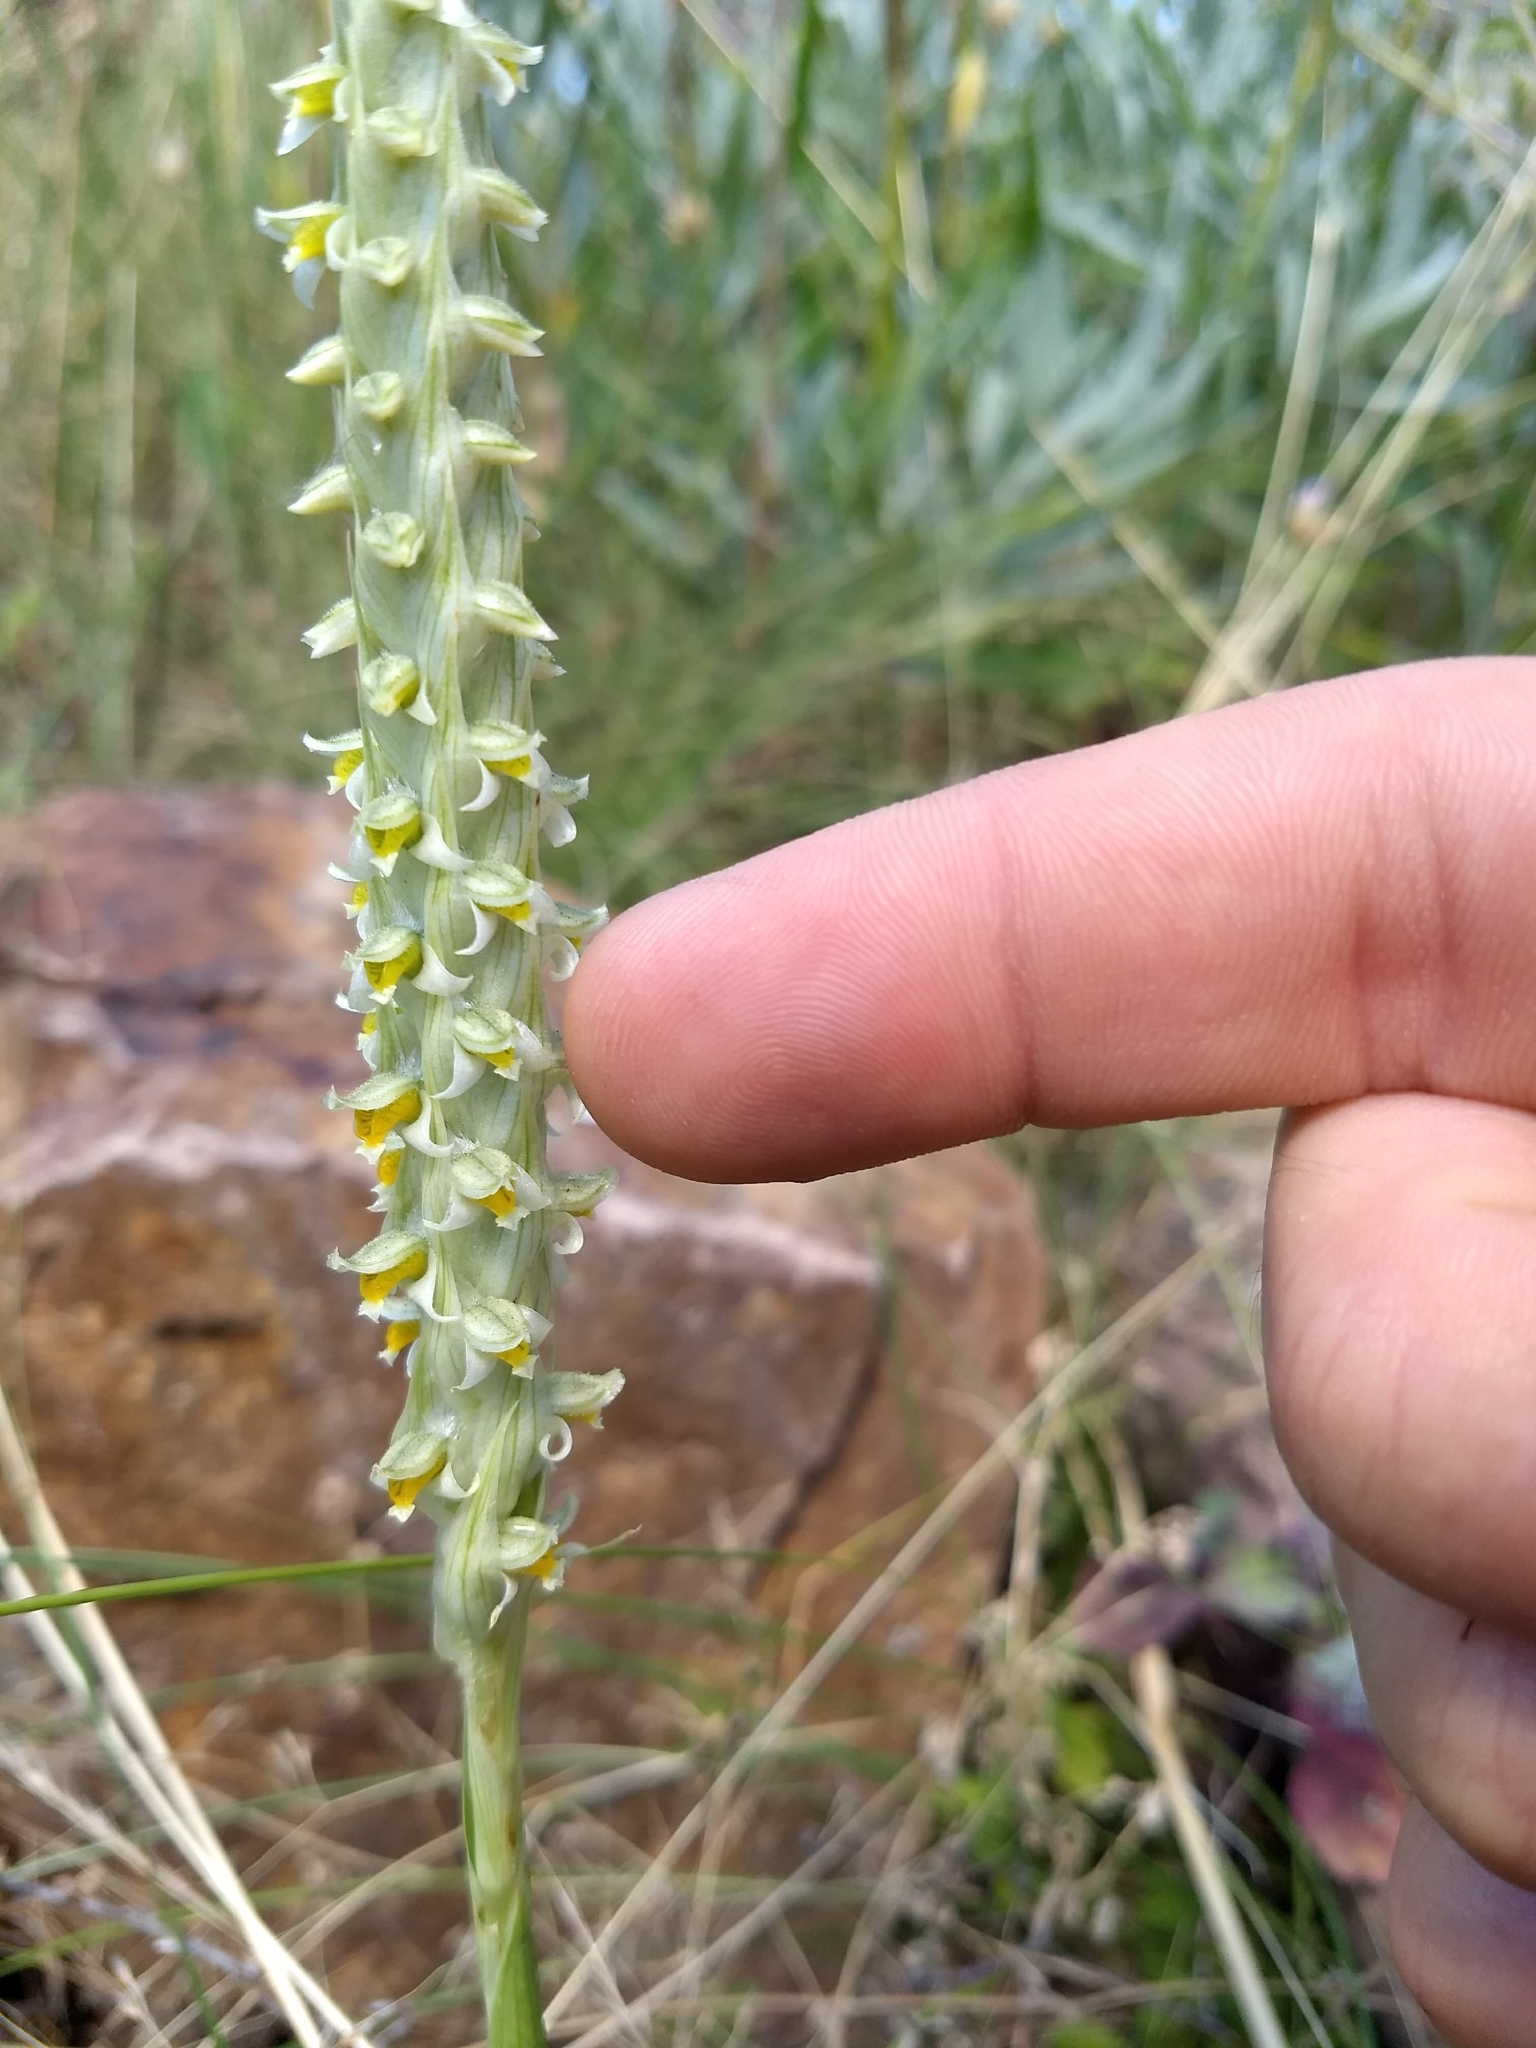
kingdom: Plantae
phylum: Tracheophyta
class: Liliopsida
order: Asparagales
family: Orchidaceae
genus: Brachystele
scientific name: Brachystele dilatata
